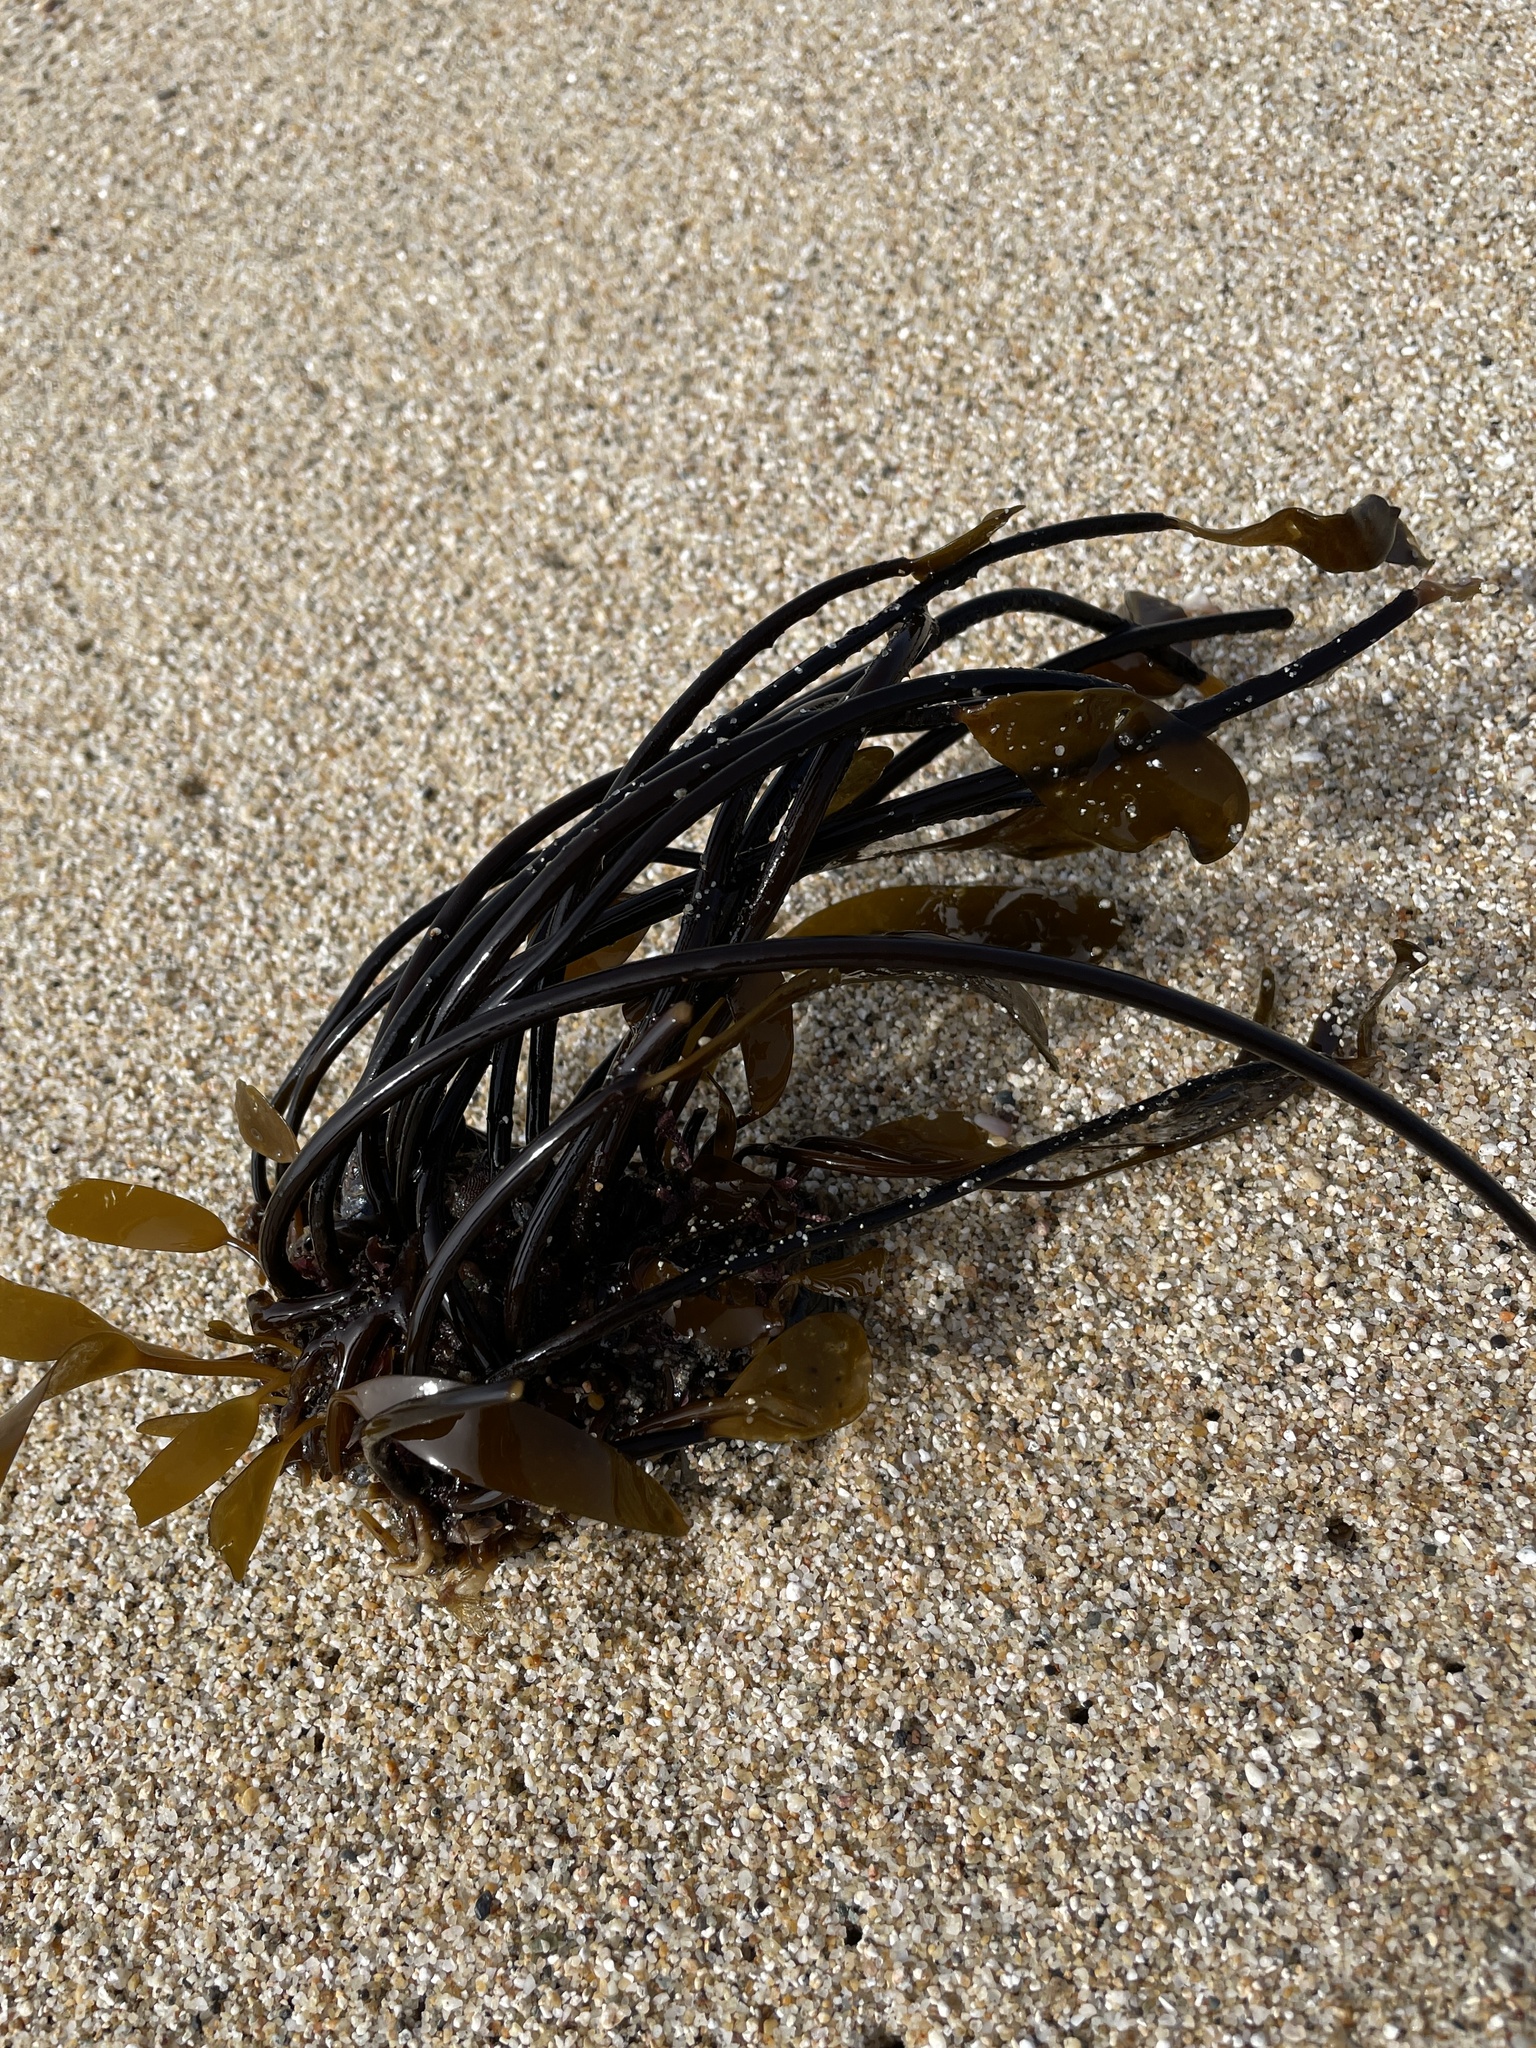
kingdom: Chromista
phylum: Ochrophyta
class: Phaeophyceae
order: Laminariales
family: Laminariaceae
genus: Laminaria
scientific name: Laminaria sinclairii
